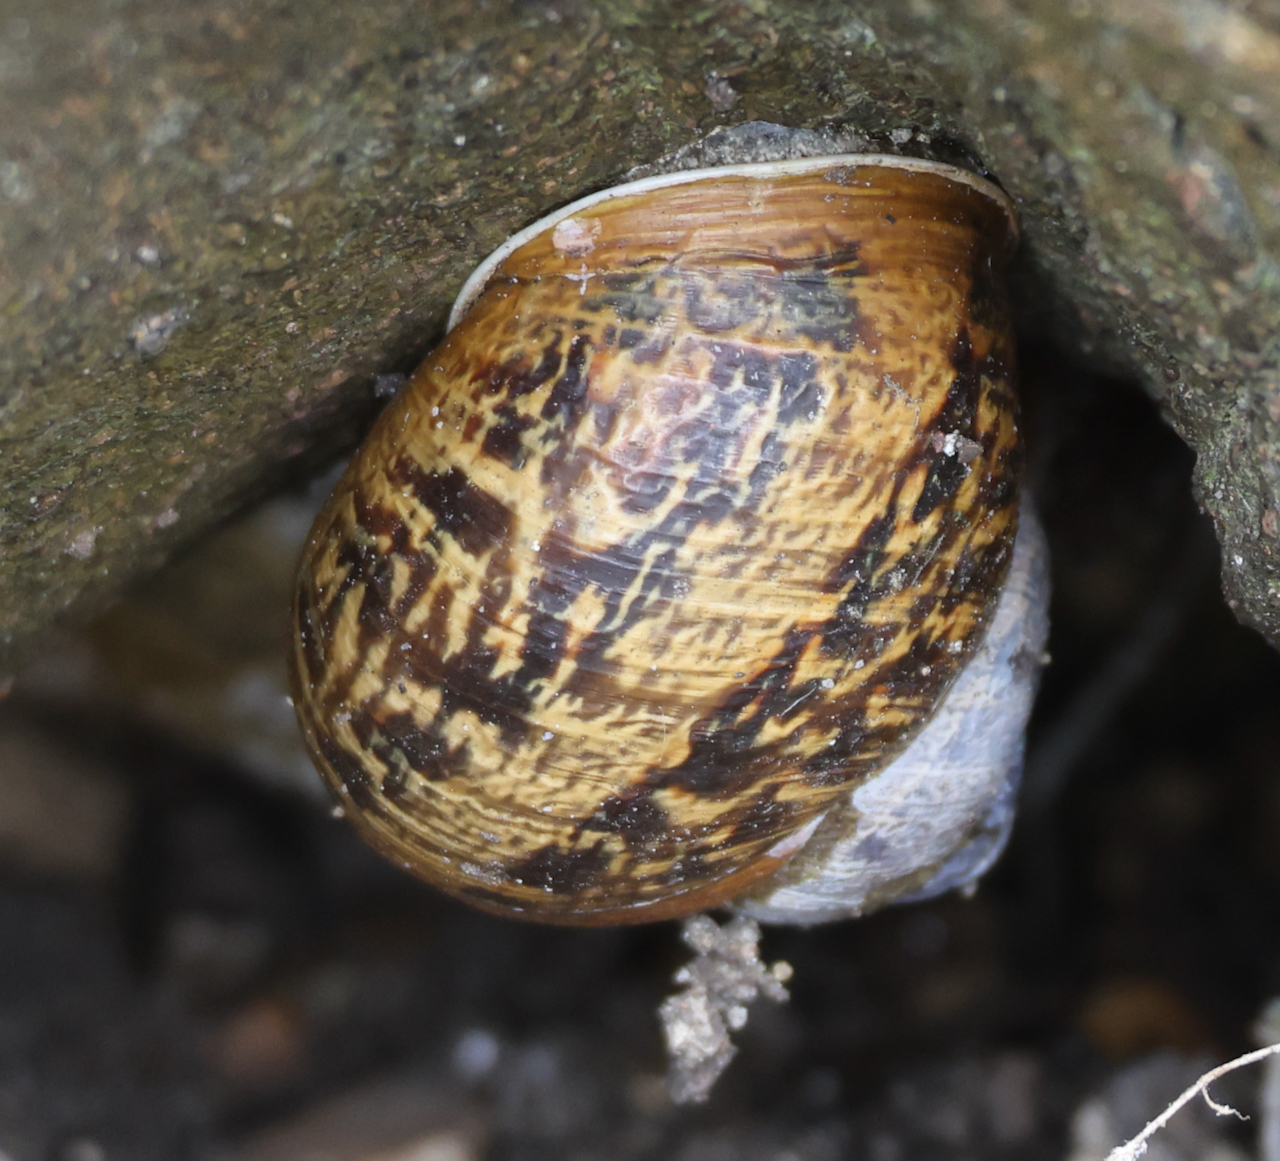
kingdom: Animalia
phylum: Mollusca
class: Gastropoda
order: Stylommatophora
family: Helicidae
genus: Cornu
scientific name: Cornu aspersum
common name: Brown garden snail
